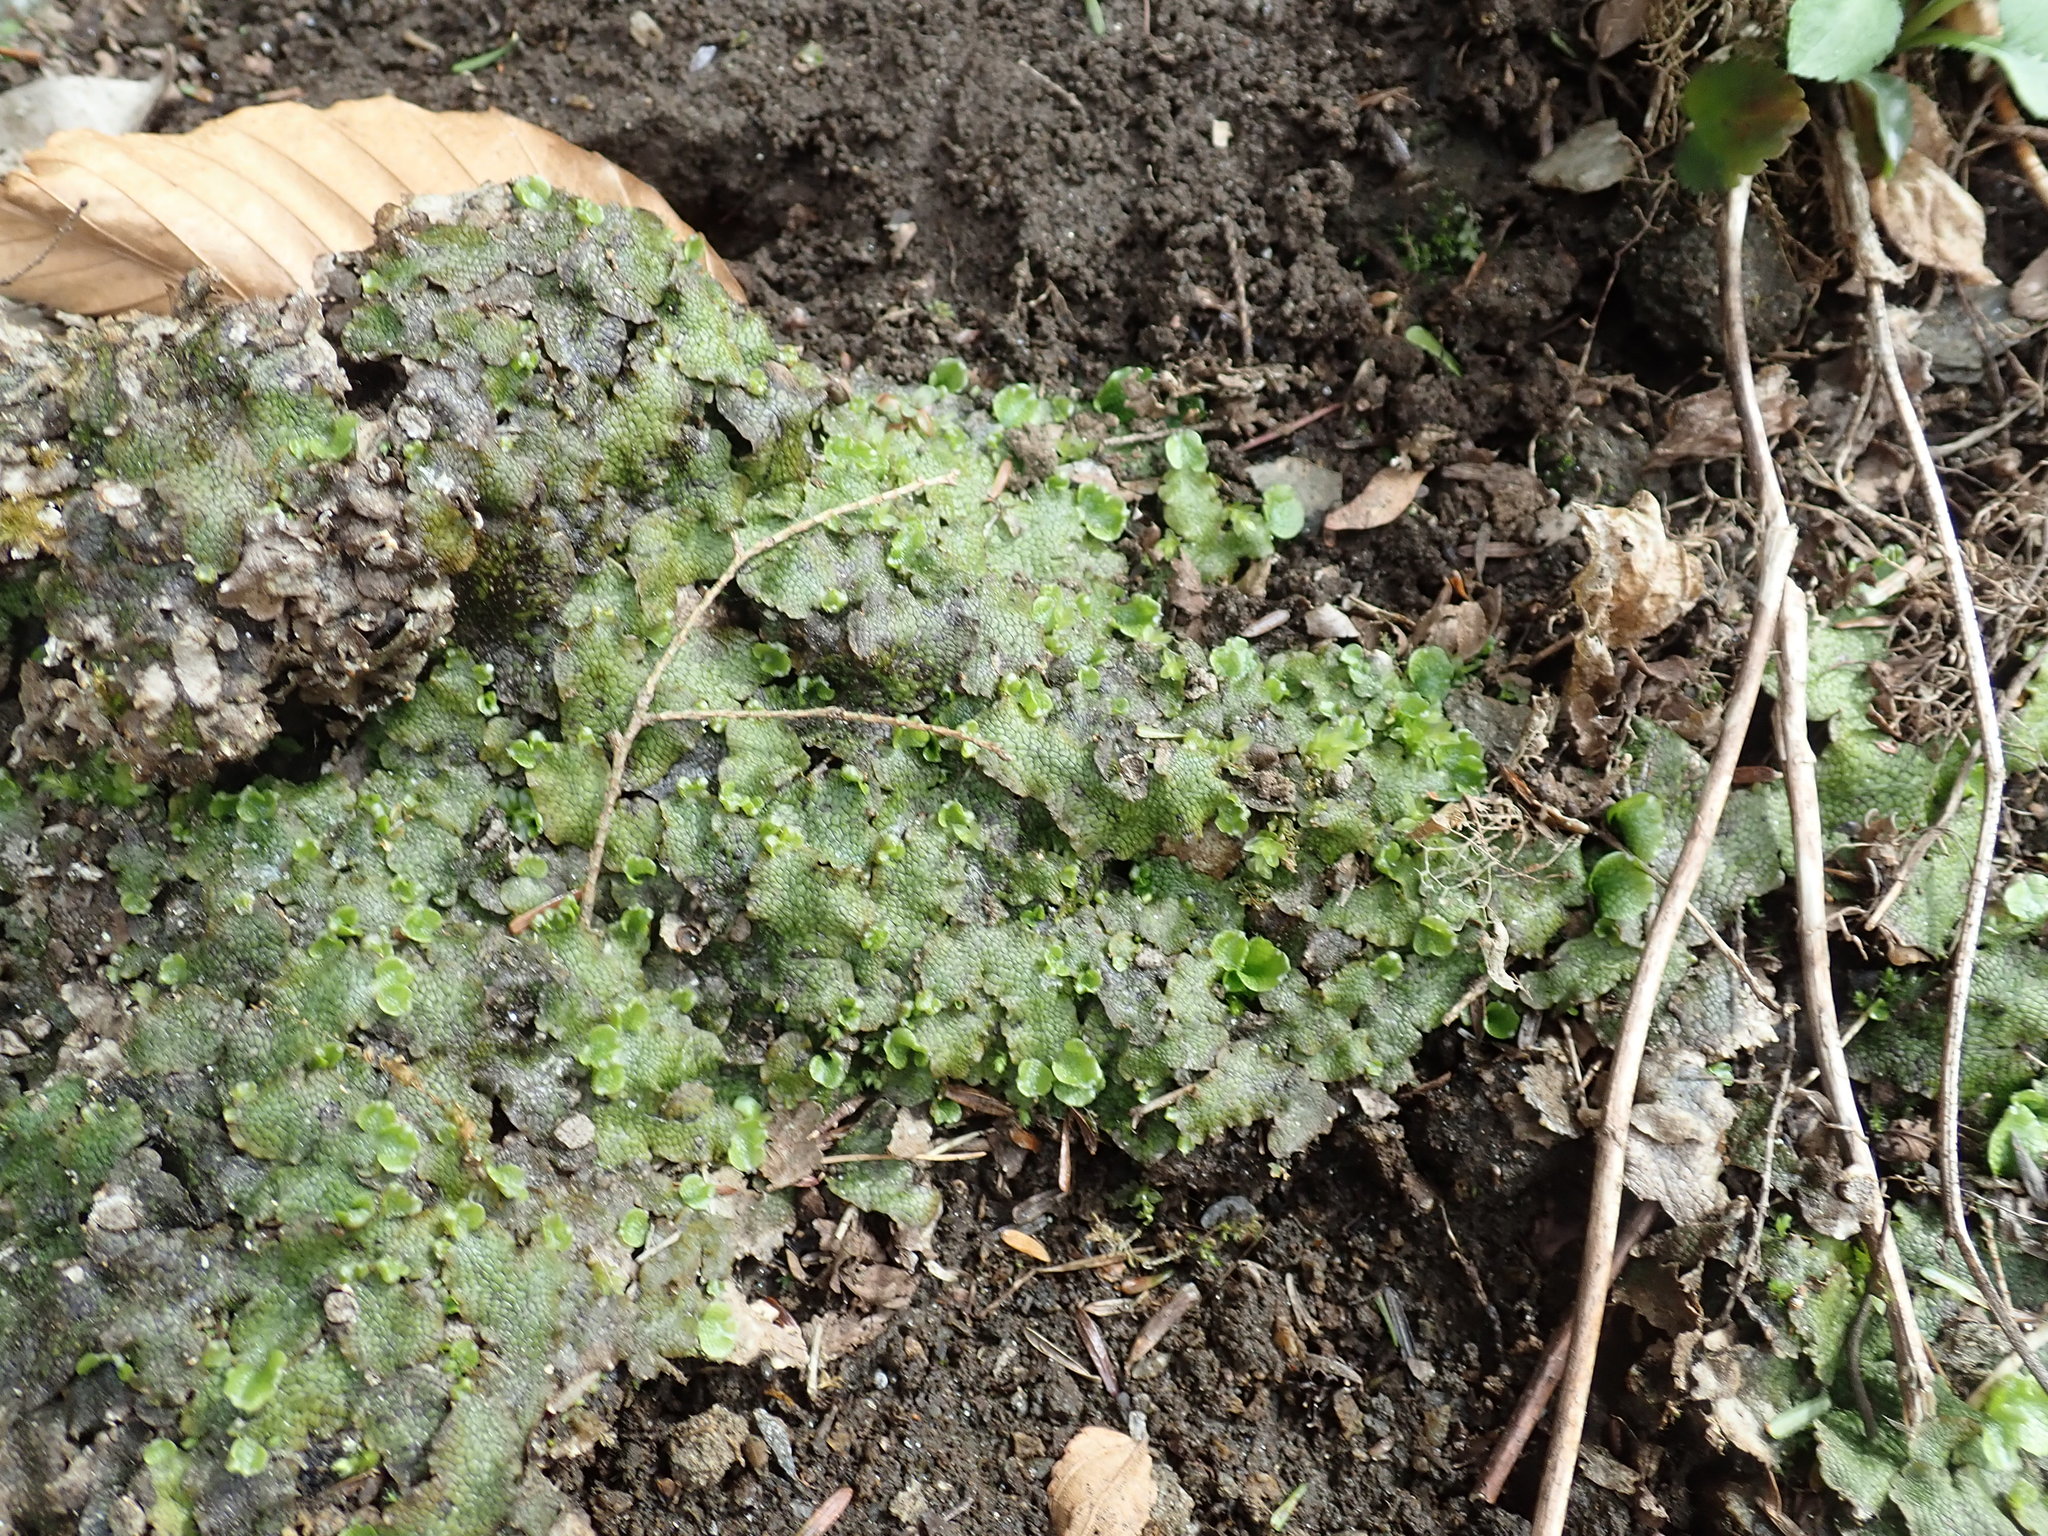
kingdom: Plantae
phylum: Marchantiophyta
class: Marchantiopsida
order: Marchantiales
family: Conocephalaceae
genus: Conocephalum
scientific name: Conocephalum salebrosum
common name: Cat-tongue liverwort
